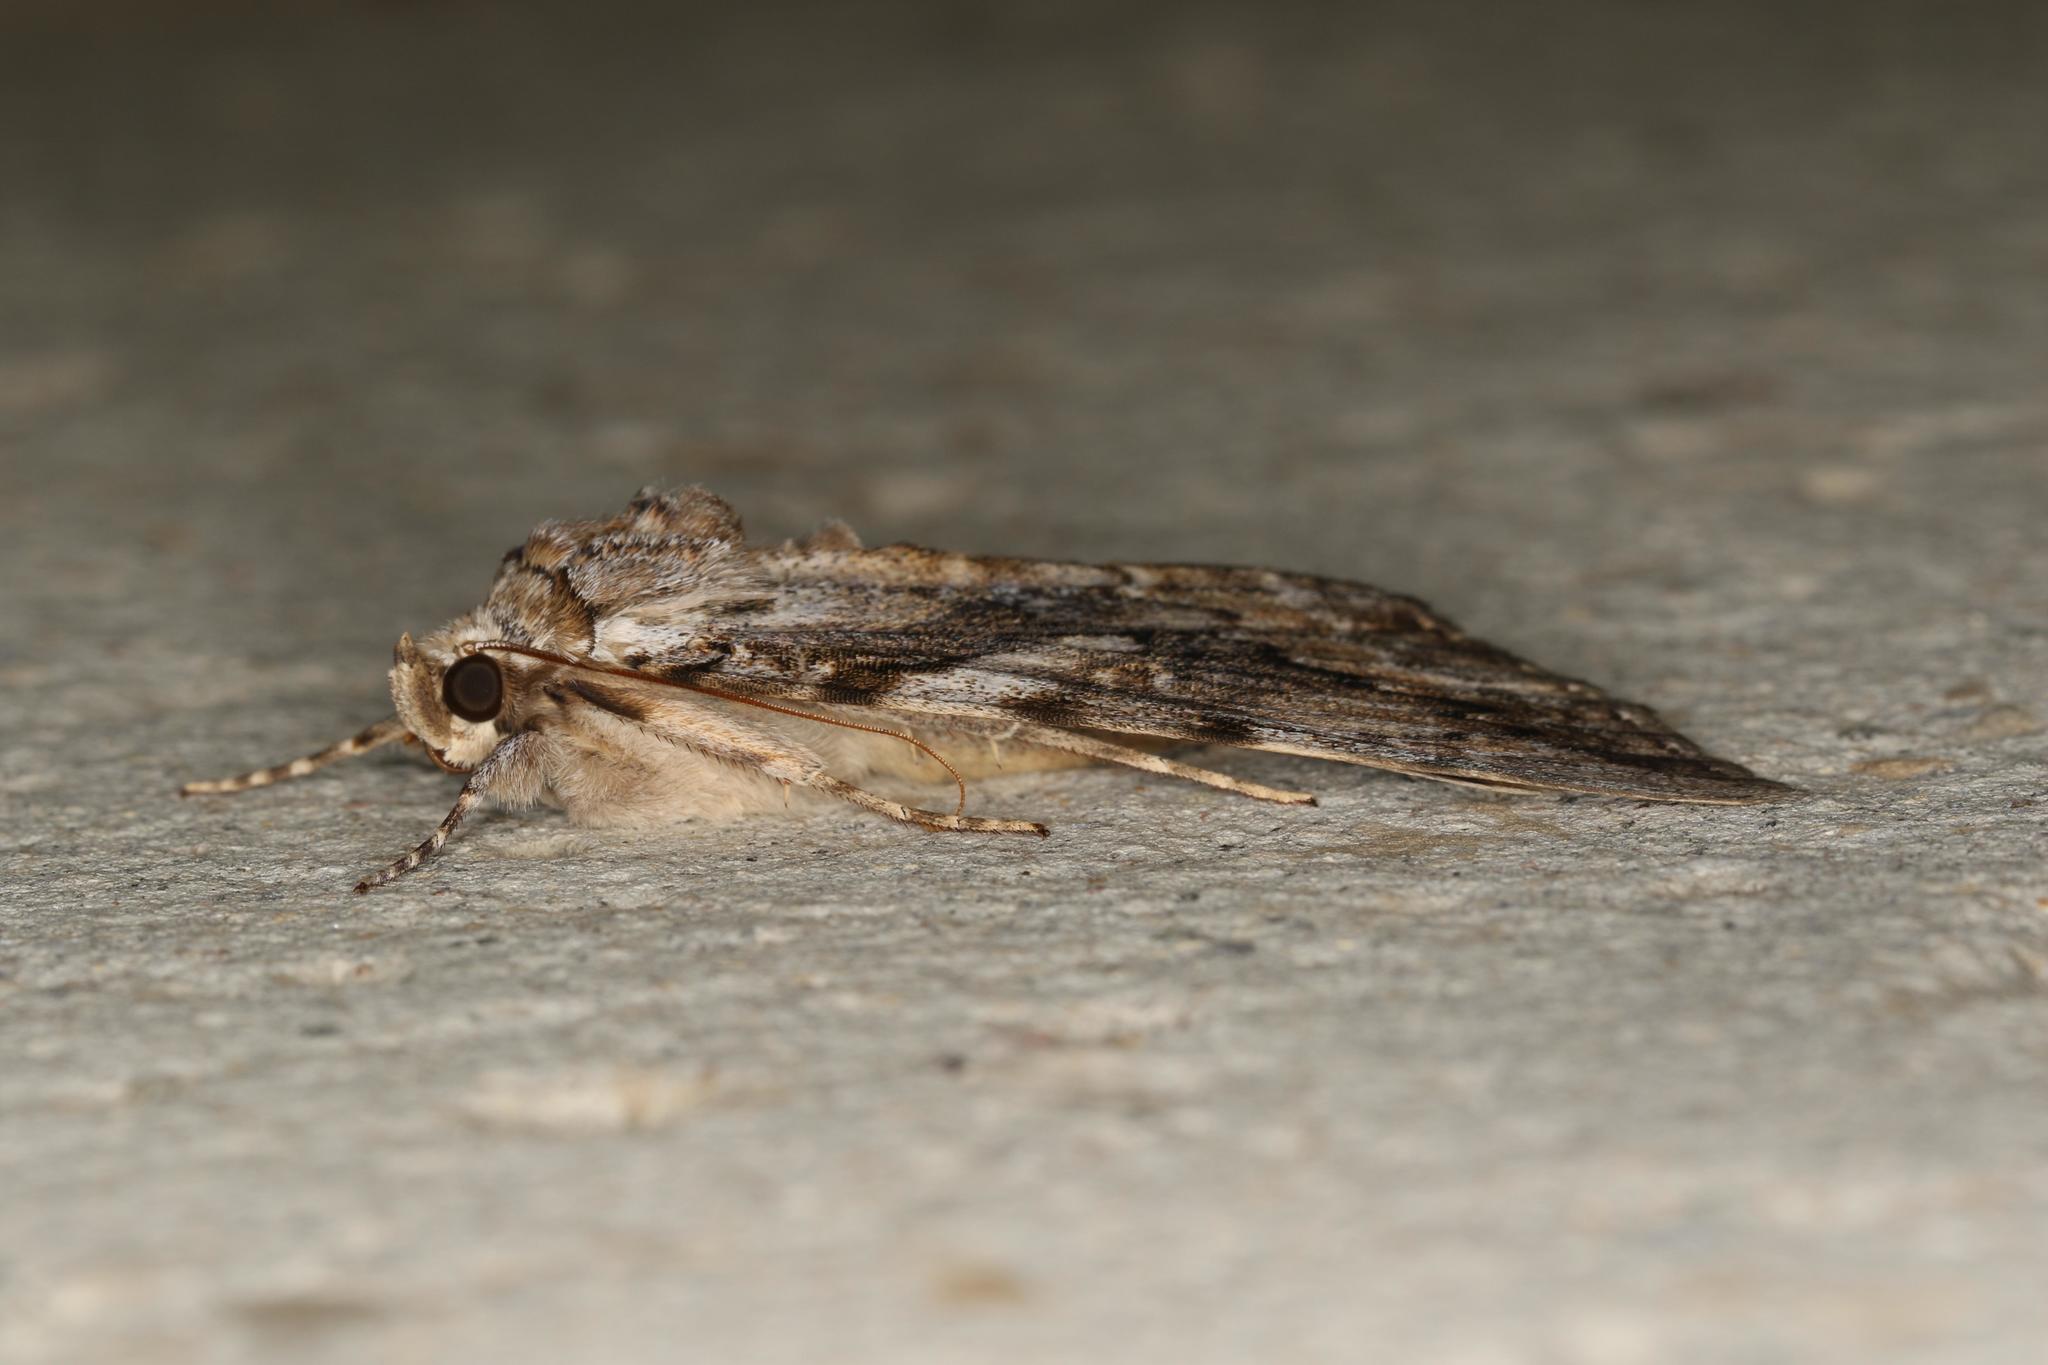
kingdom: Animalia
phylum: Arthropoda
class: Insecta
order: Lepidoptera
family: Erebidae
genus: Catocala
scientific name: Catocala cerogama
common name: Yellow banded underwing
